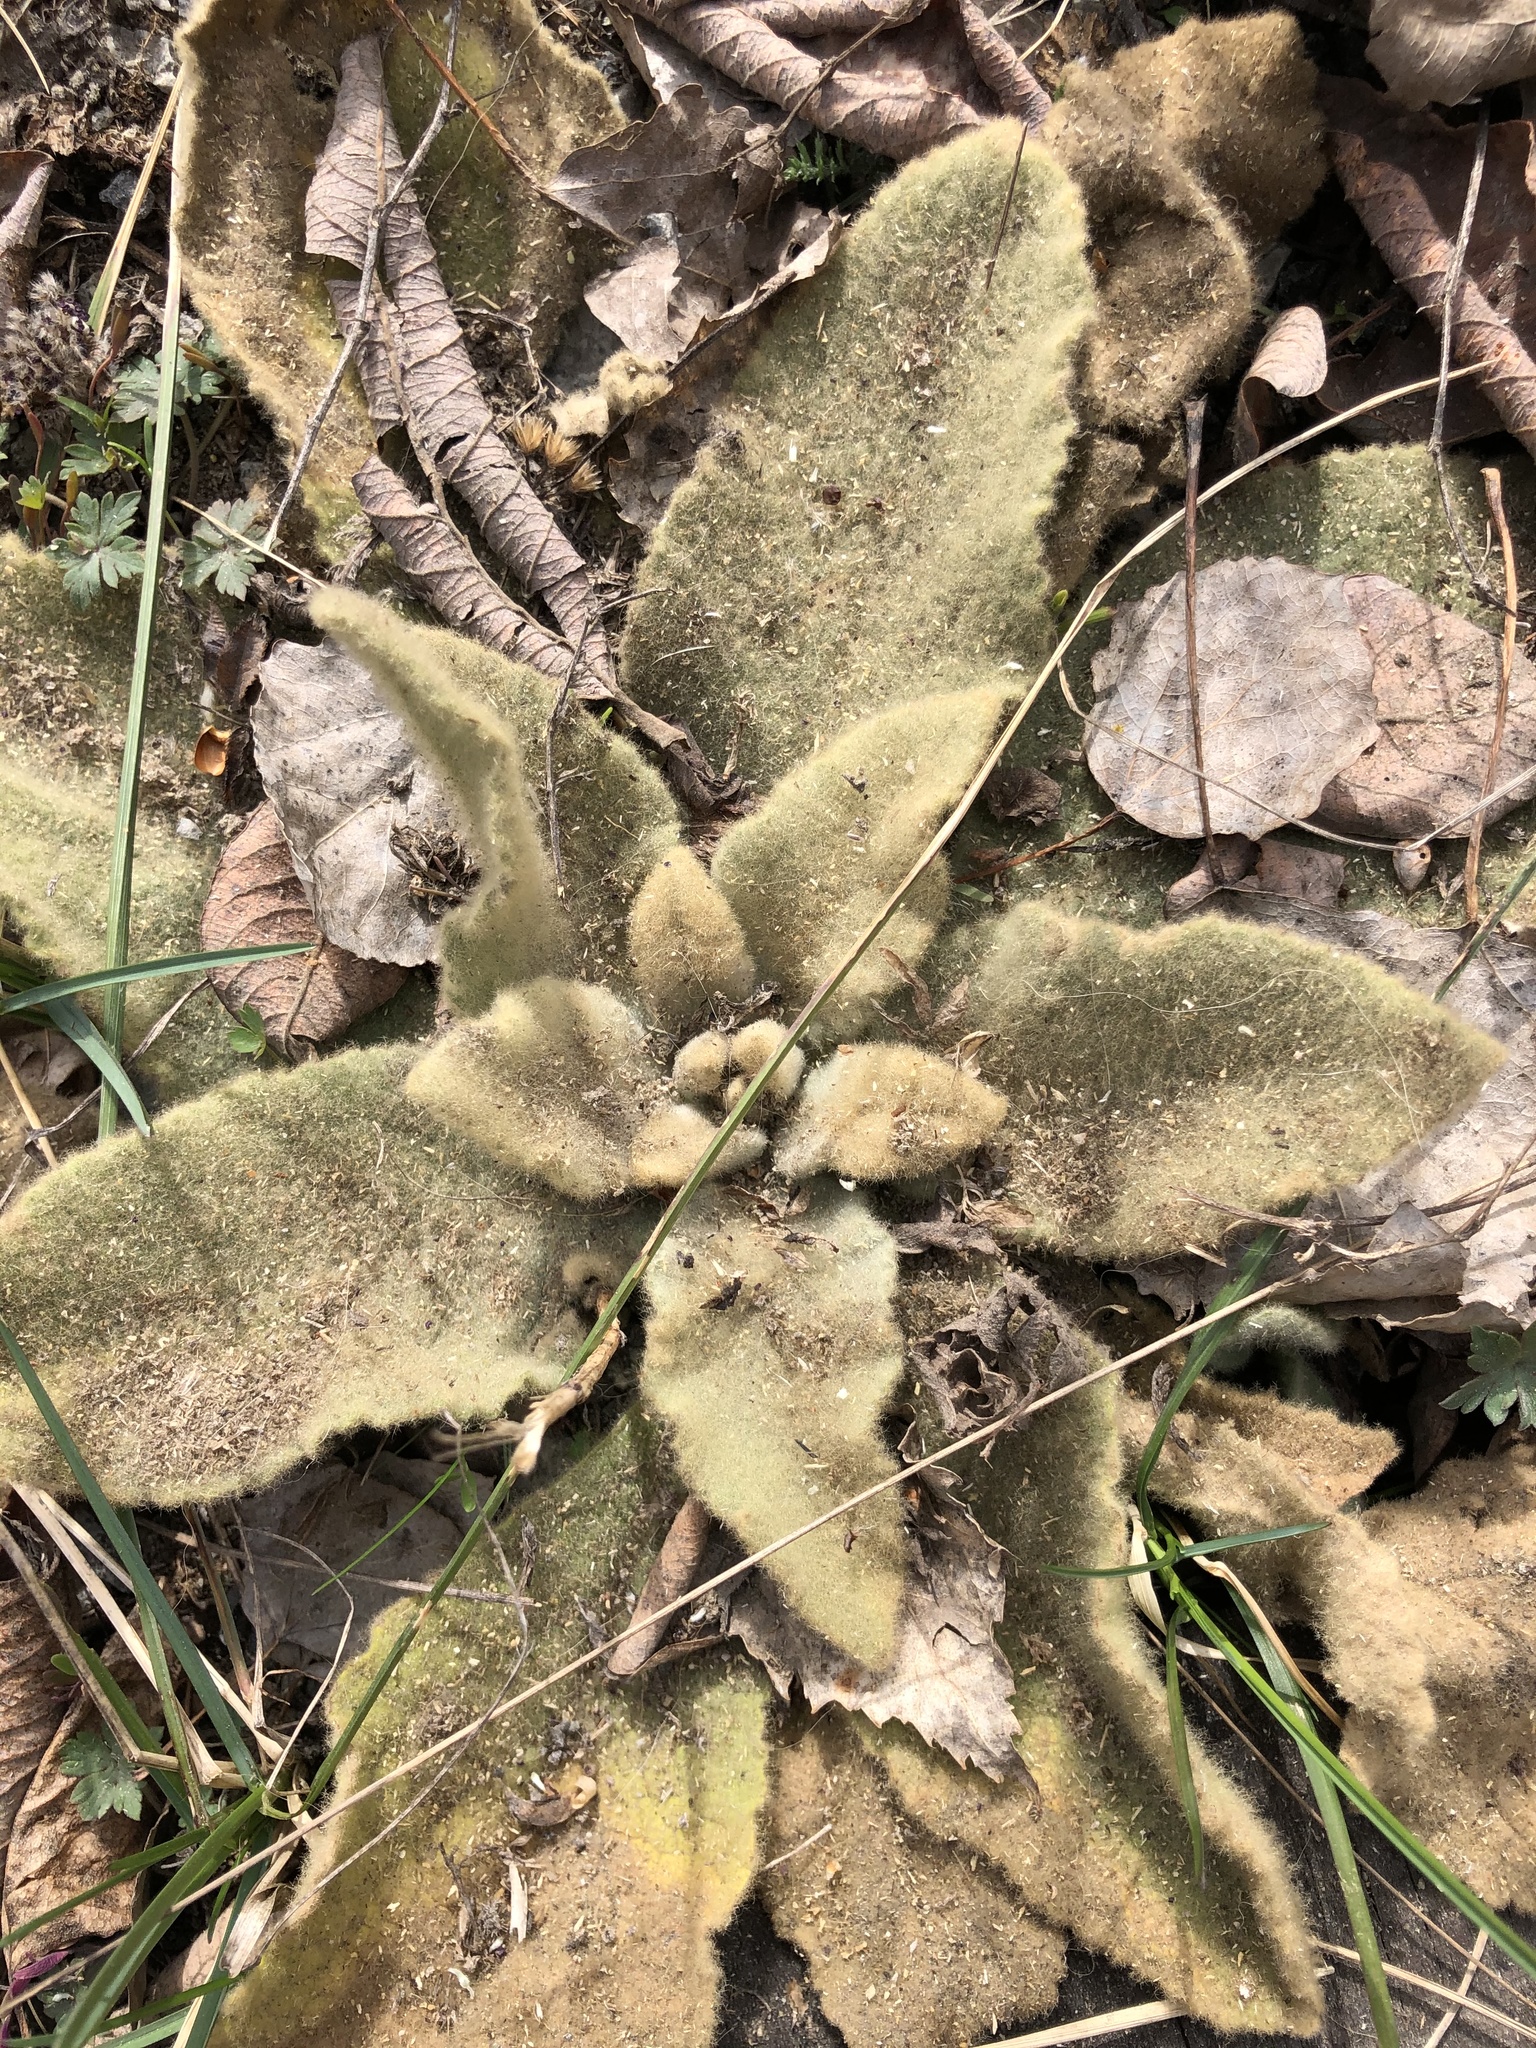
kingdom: Plantae
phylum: Tracheophyta
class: Magnoliopsida
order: Lamiales
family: Scrophulariaceae
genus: Verbascum
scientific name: Verbascum thapsus
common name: Common mullein
